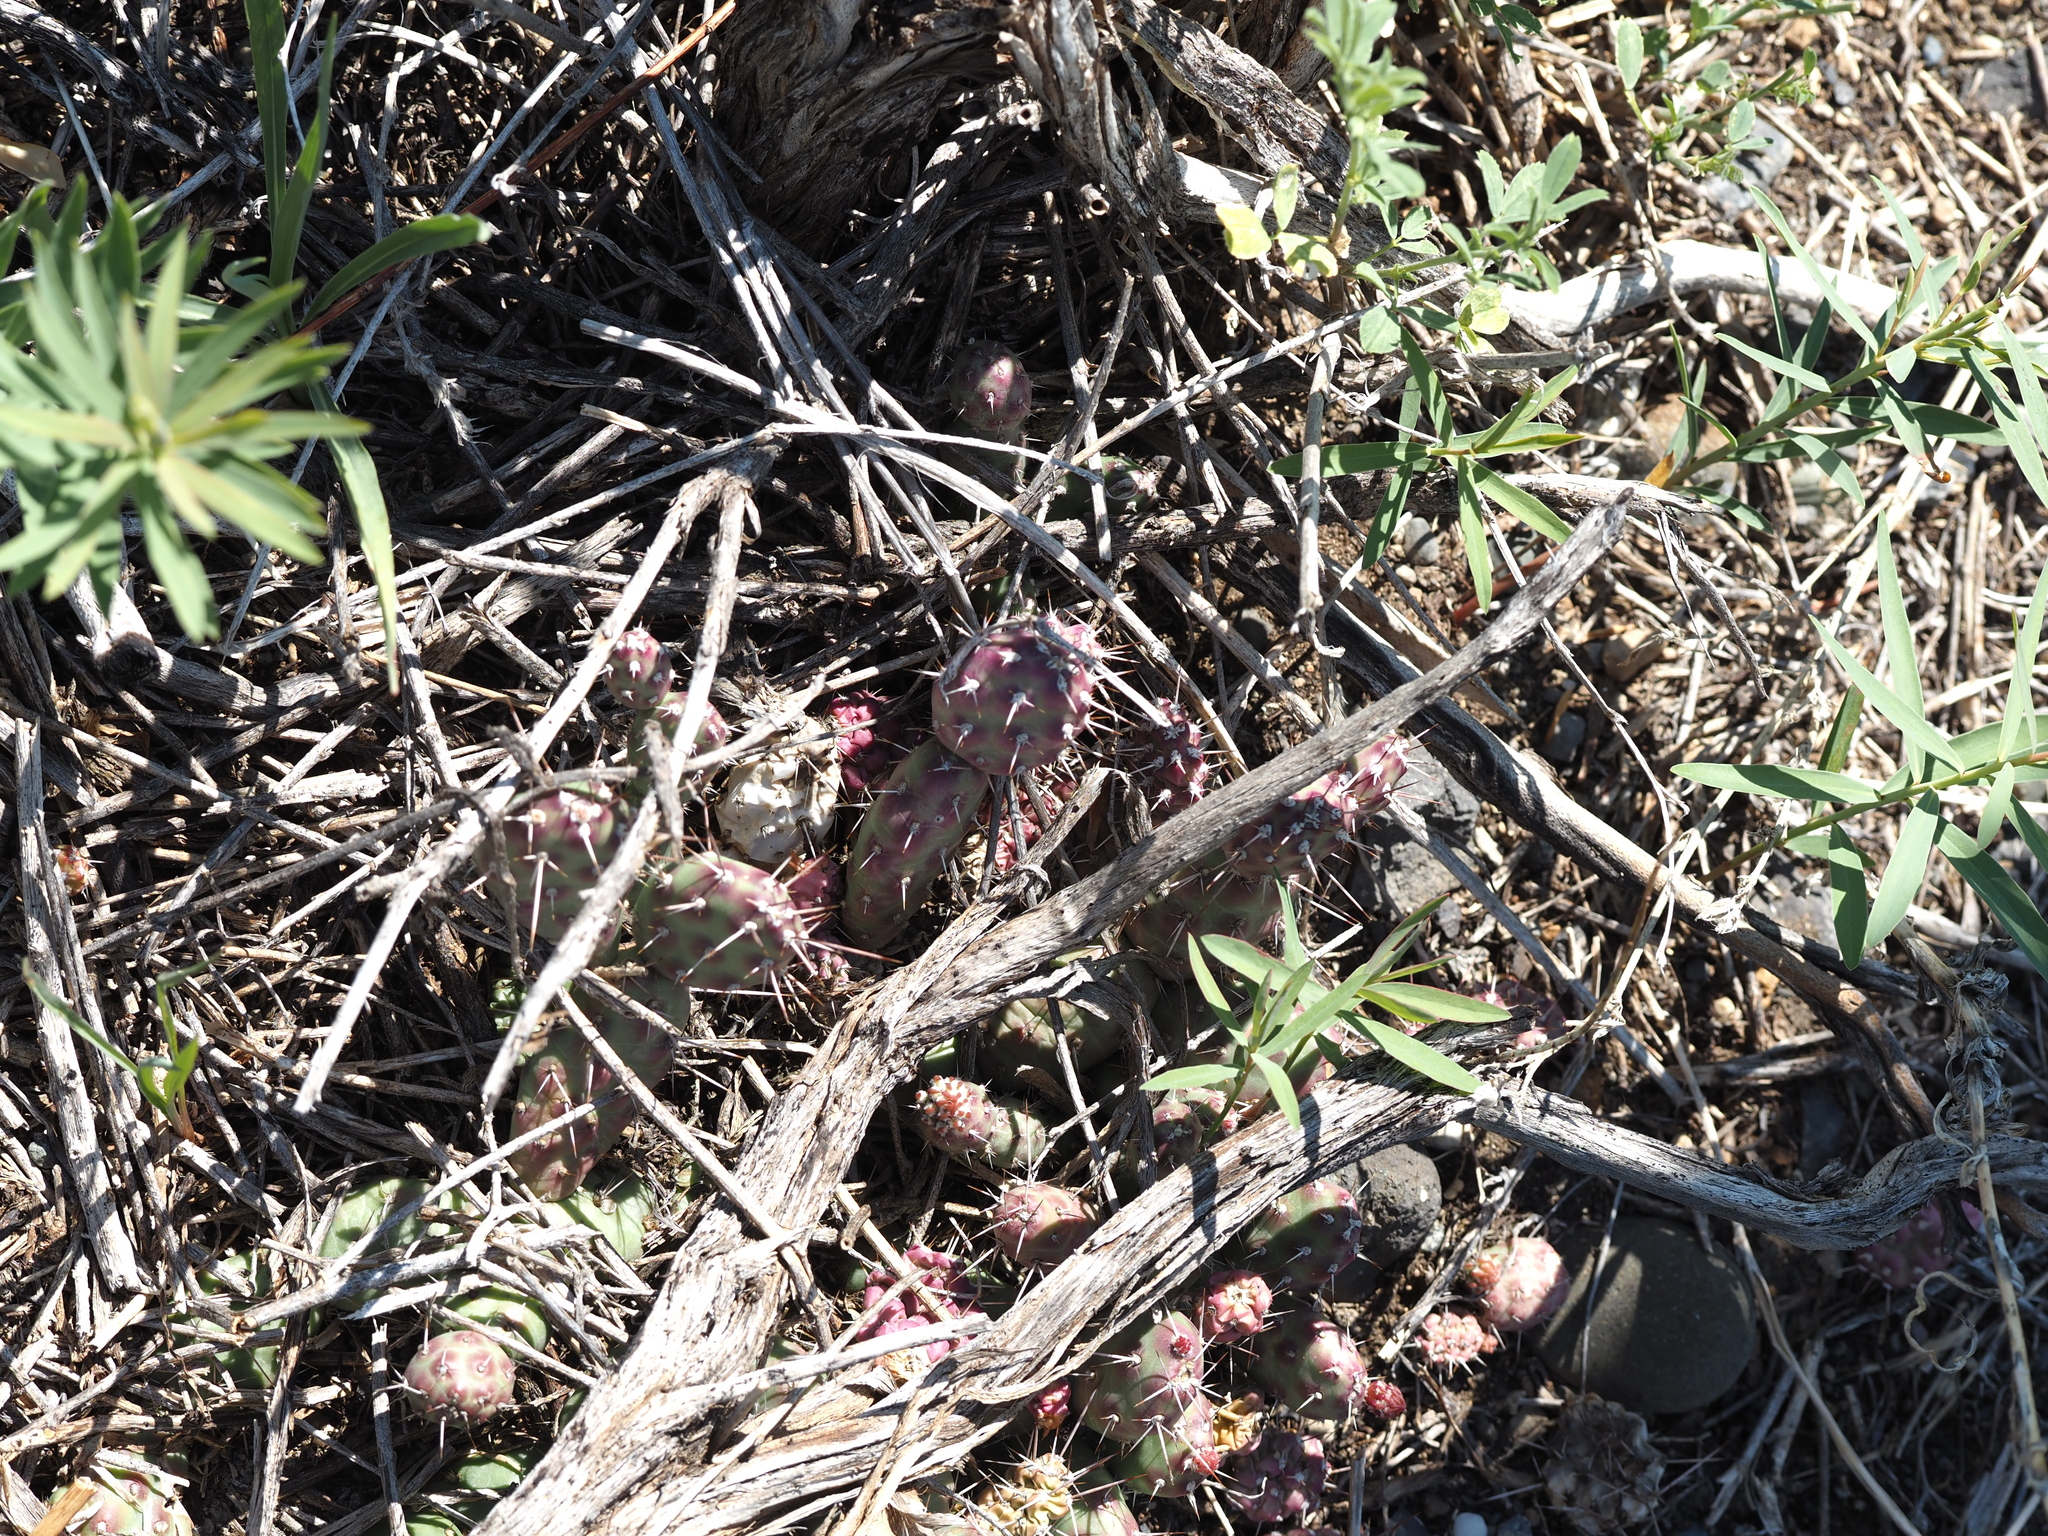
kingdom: Plantae
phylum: Tracheophyta
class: Magnoliopsida
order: Caryophyllales
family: Cactaceae
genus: Opuntia
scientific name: Opuntia fragilis
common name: Brittle cactus
